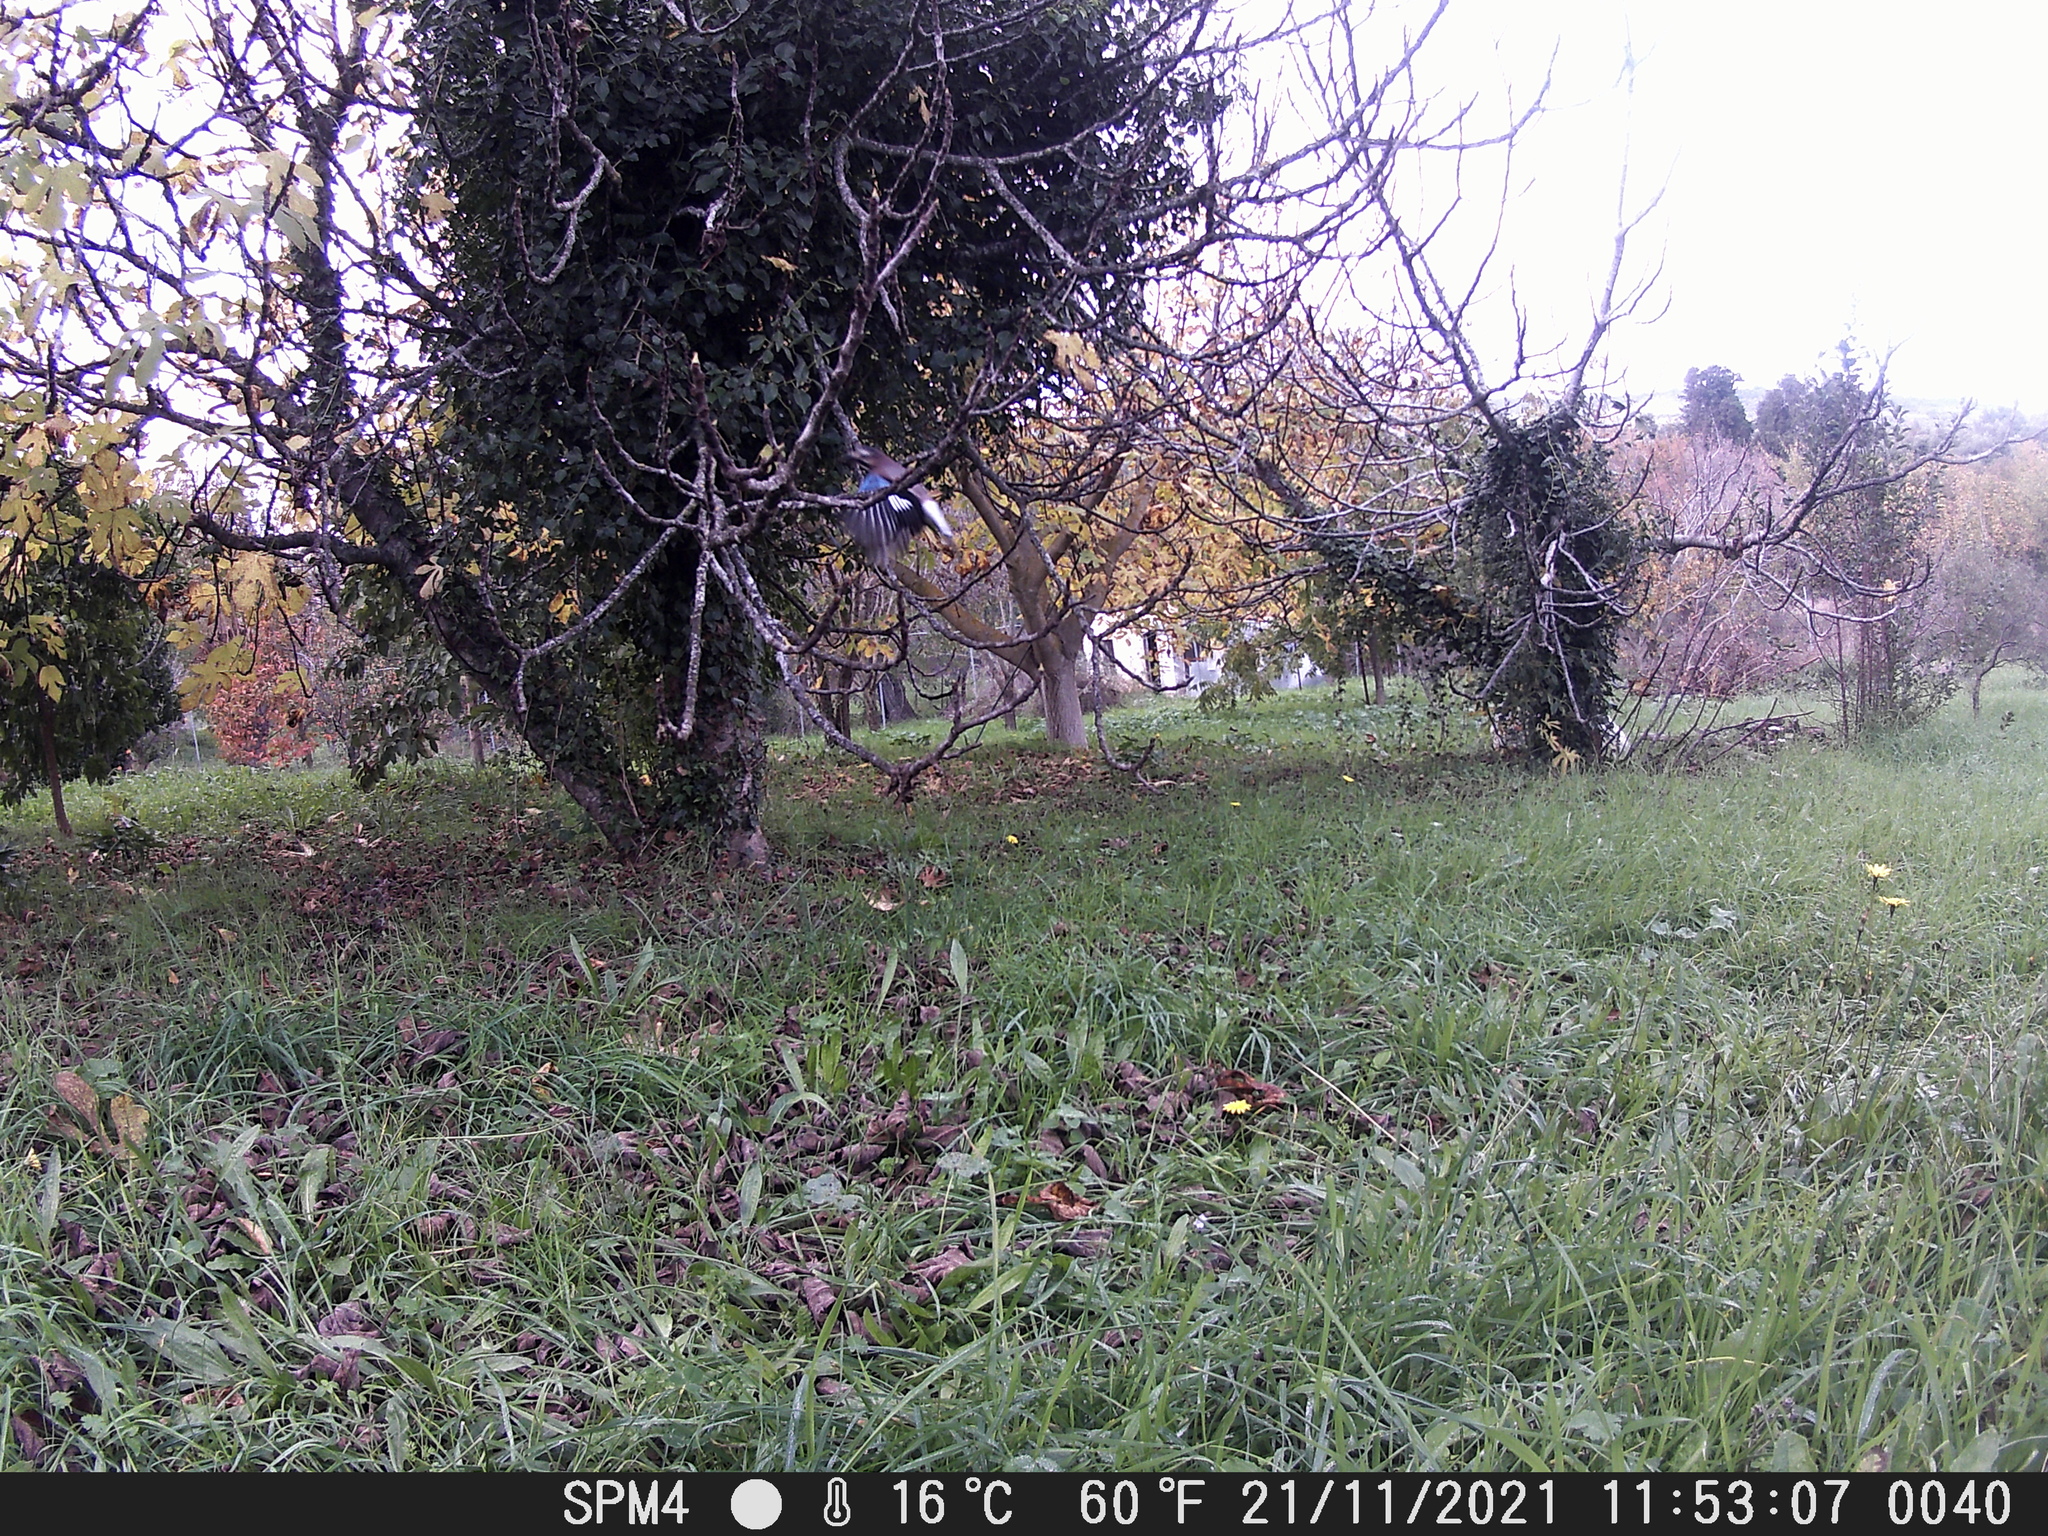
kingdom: Animalia
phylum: Chordata
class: Aves
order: Passeriformes
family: Corvidae
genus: Garrulus
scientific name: Garrulus glandarius
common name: Eurasian jay
